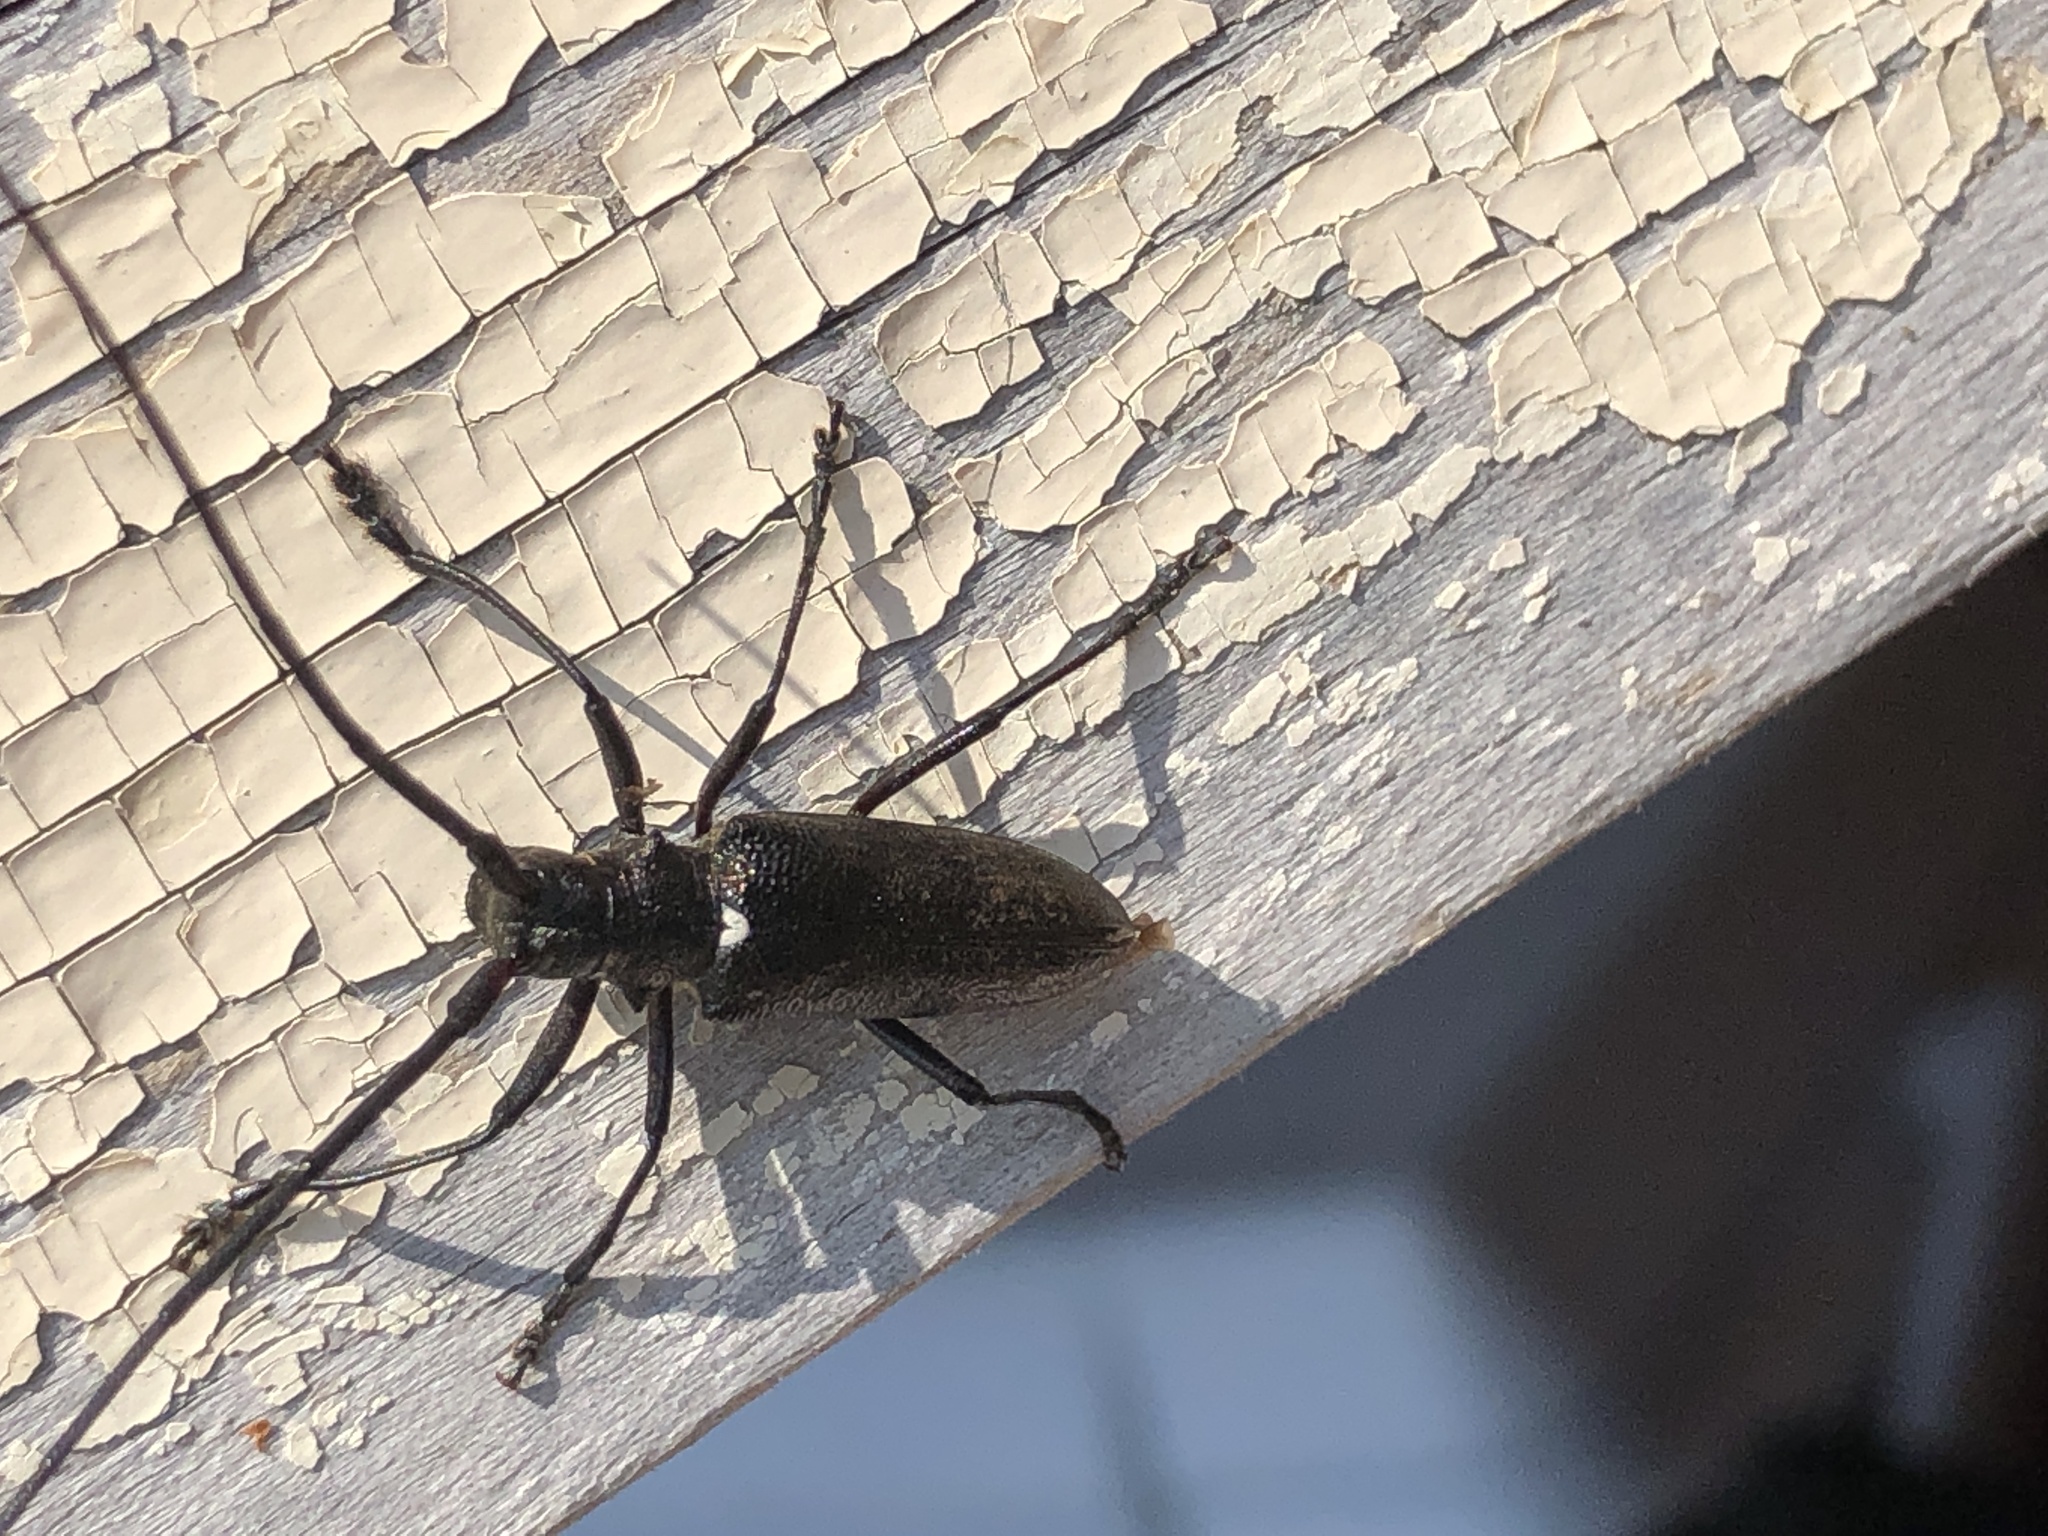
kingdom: Animalia
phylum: Arthropoda
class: Insecta
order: Coleoptera
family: Cerambycidae
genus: Monochamus
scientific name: Monochamus scutellatus
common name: White-spotted sawyer beetle
